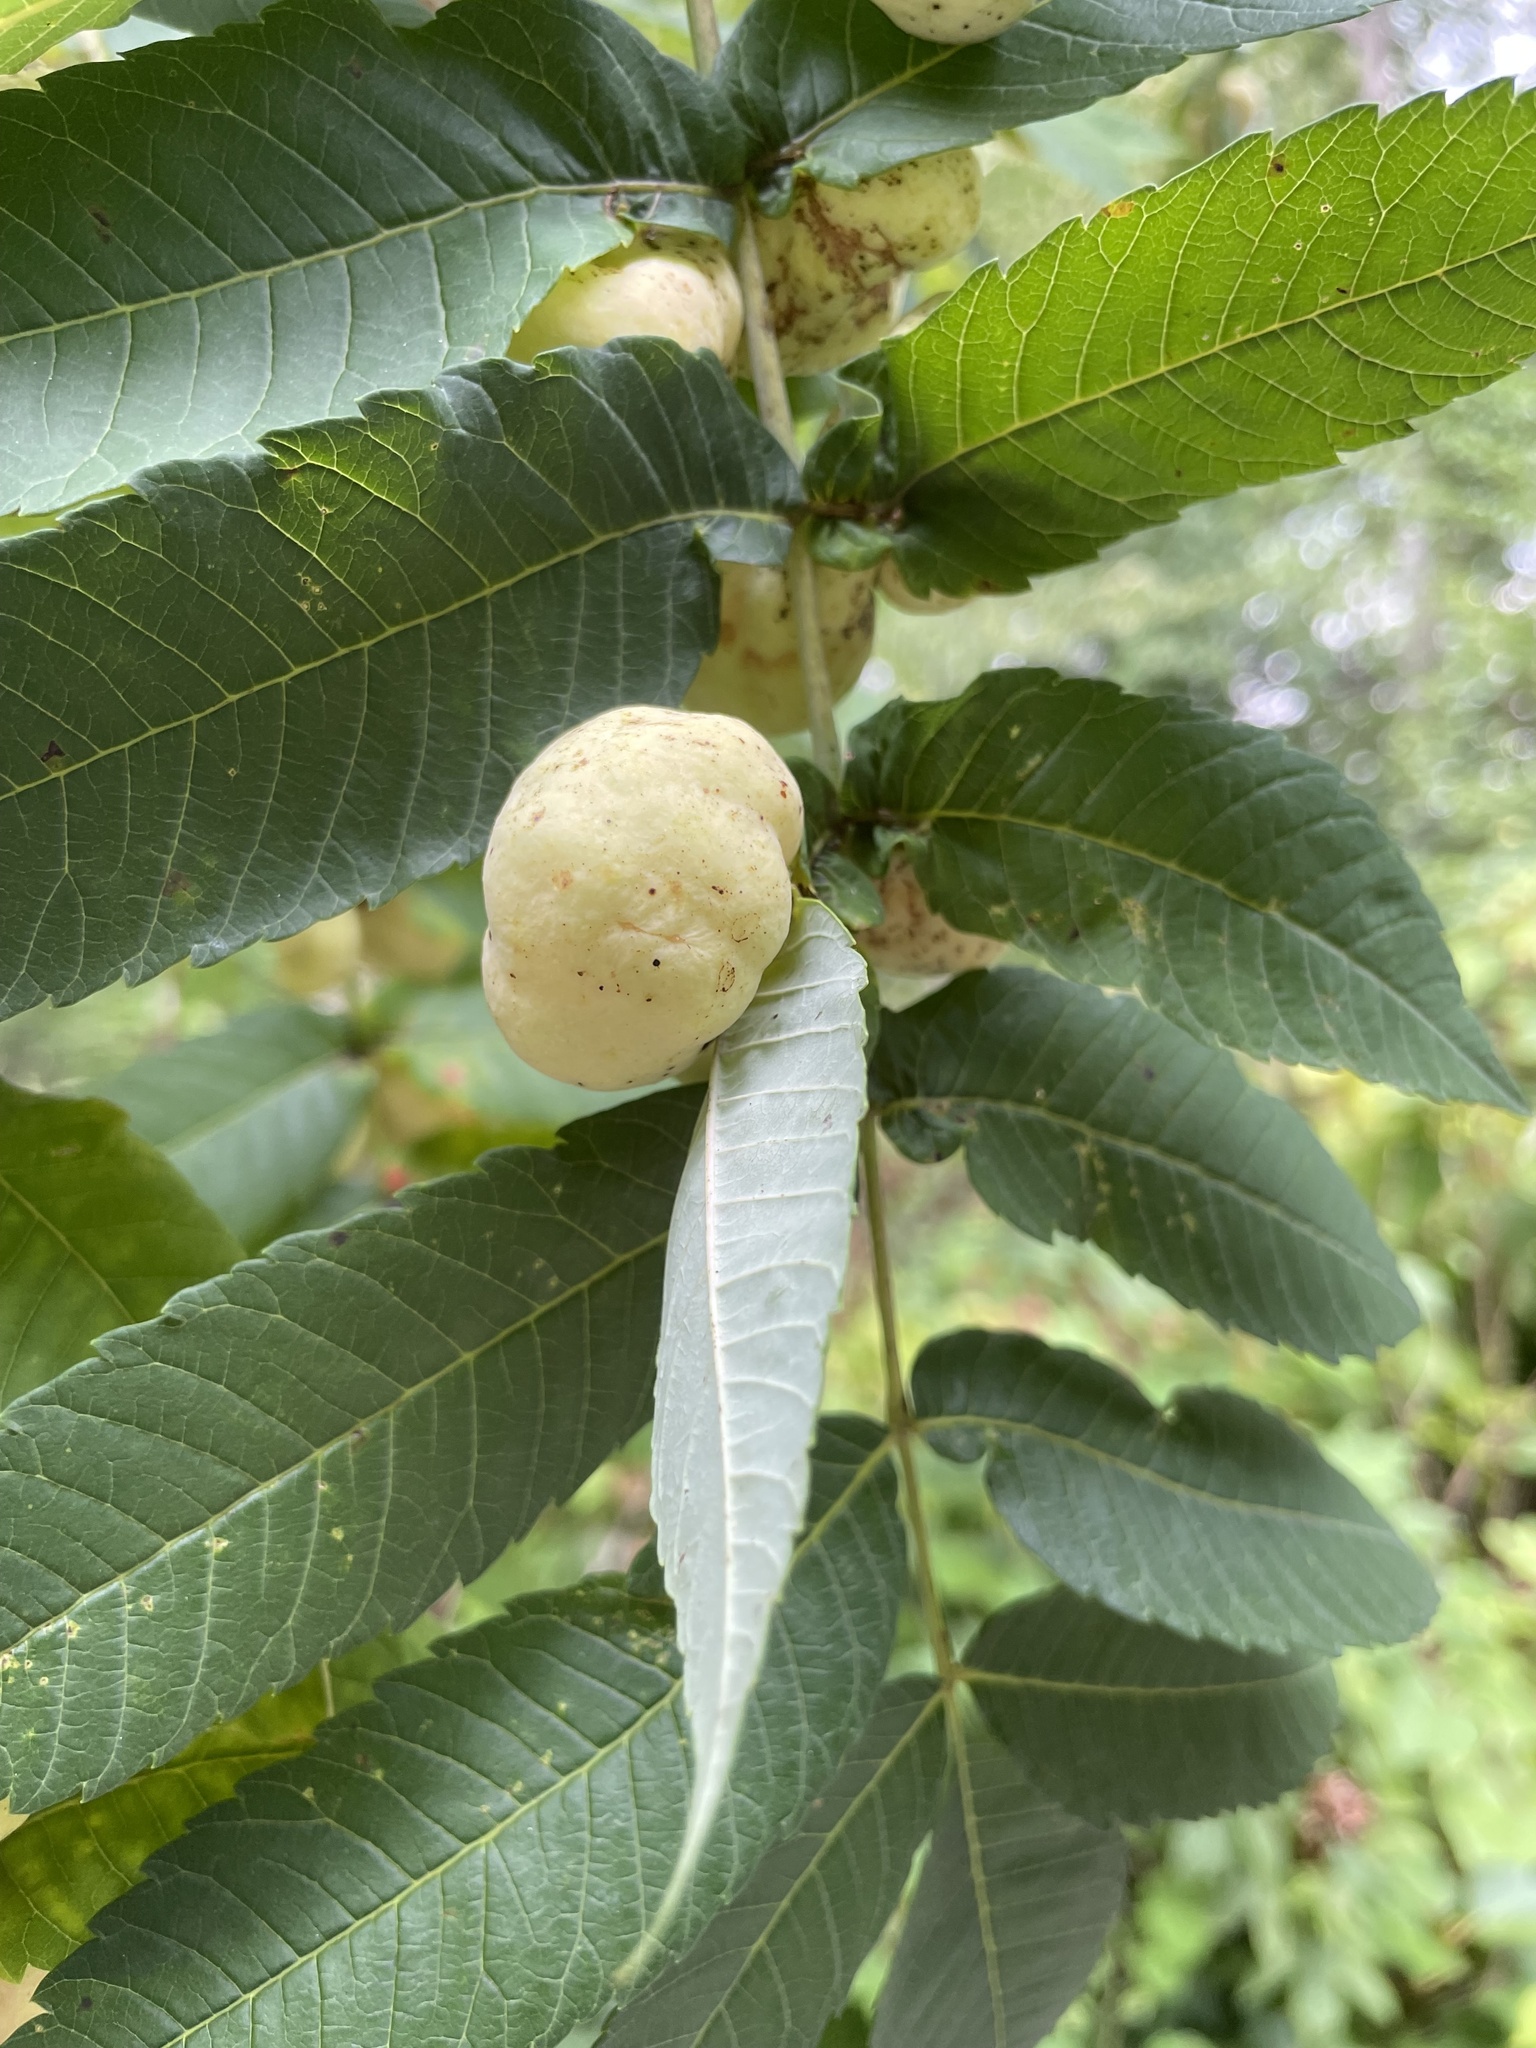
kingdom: Animalia
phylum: Arthropoda
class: Insecta
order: Hemiptera
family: Aphididae
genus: Melaphis
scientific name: Melaphis rhois
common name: Sumac gall aphid
